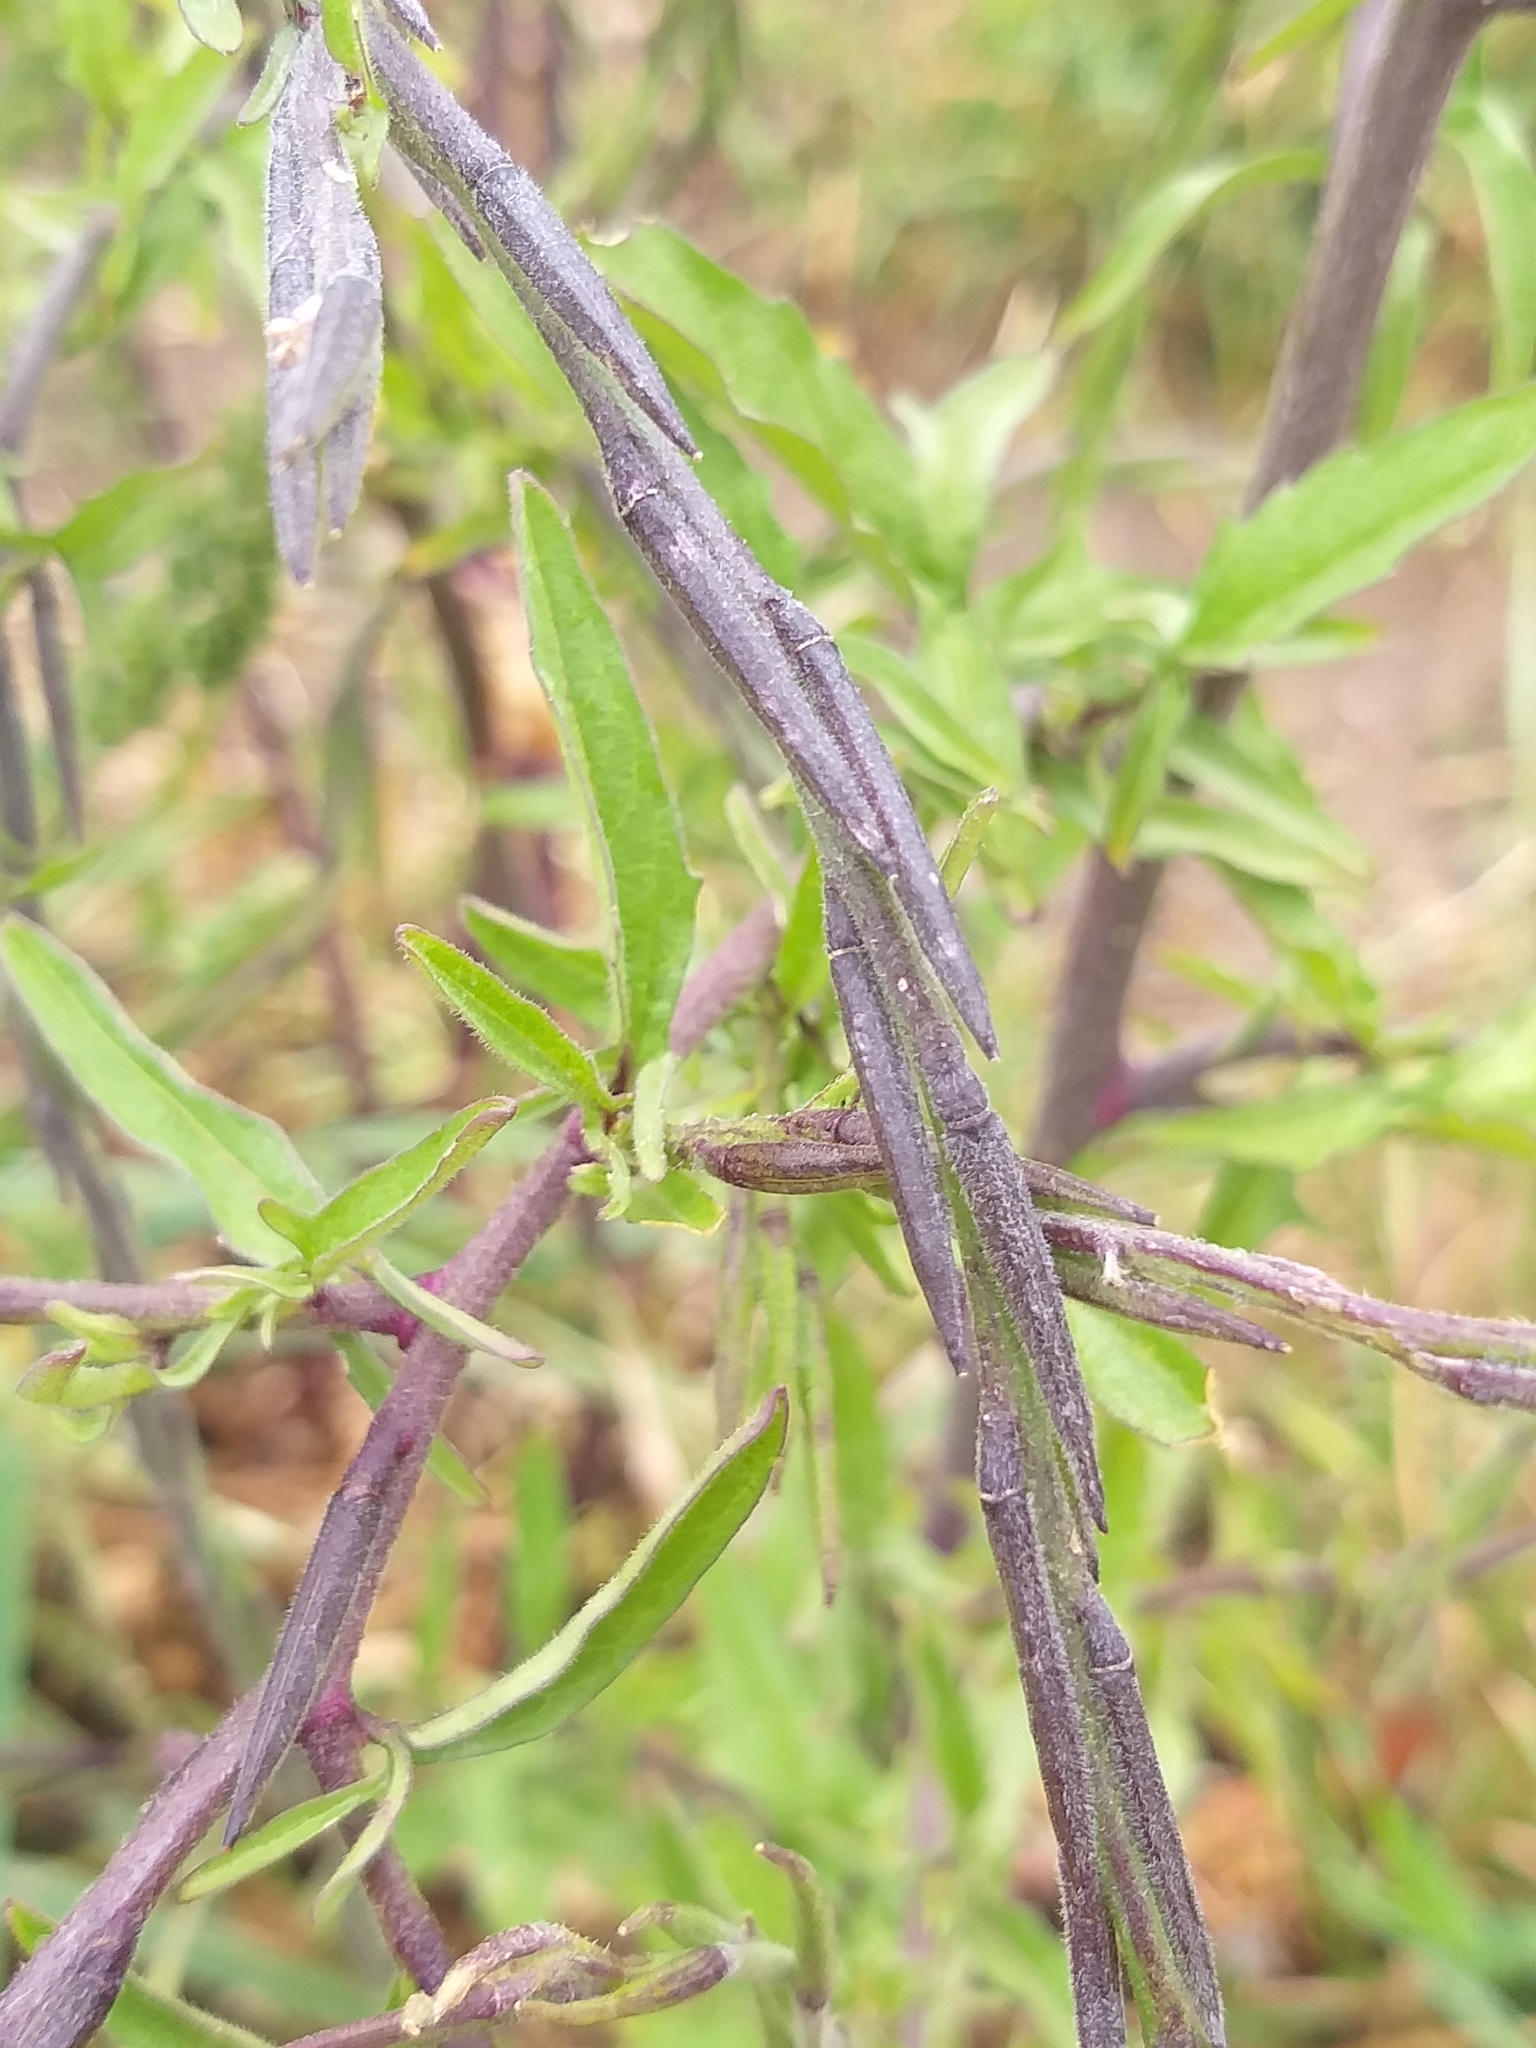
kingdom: Plantae
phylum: Tracheophyta
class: Magnoliopsida
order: Brassicales
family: Brassicaceae
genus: Sisymbrium
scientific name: Sisymbrium officinale
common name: Hedge mustard
